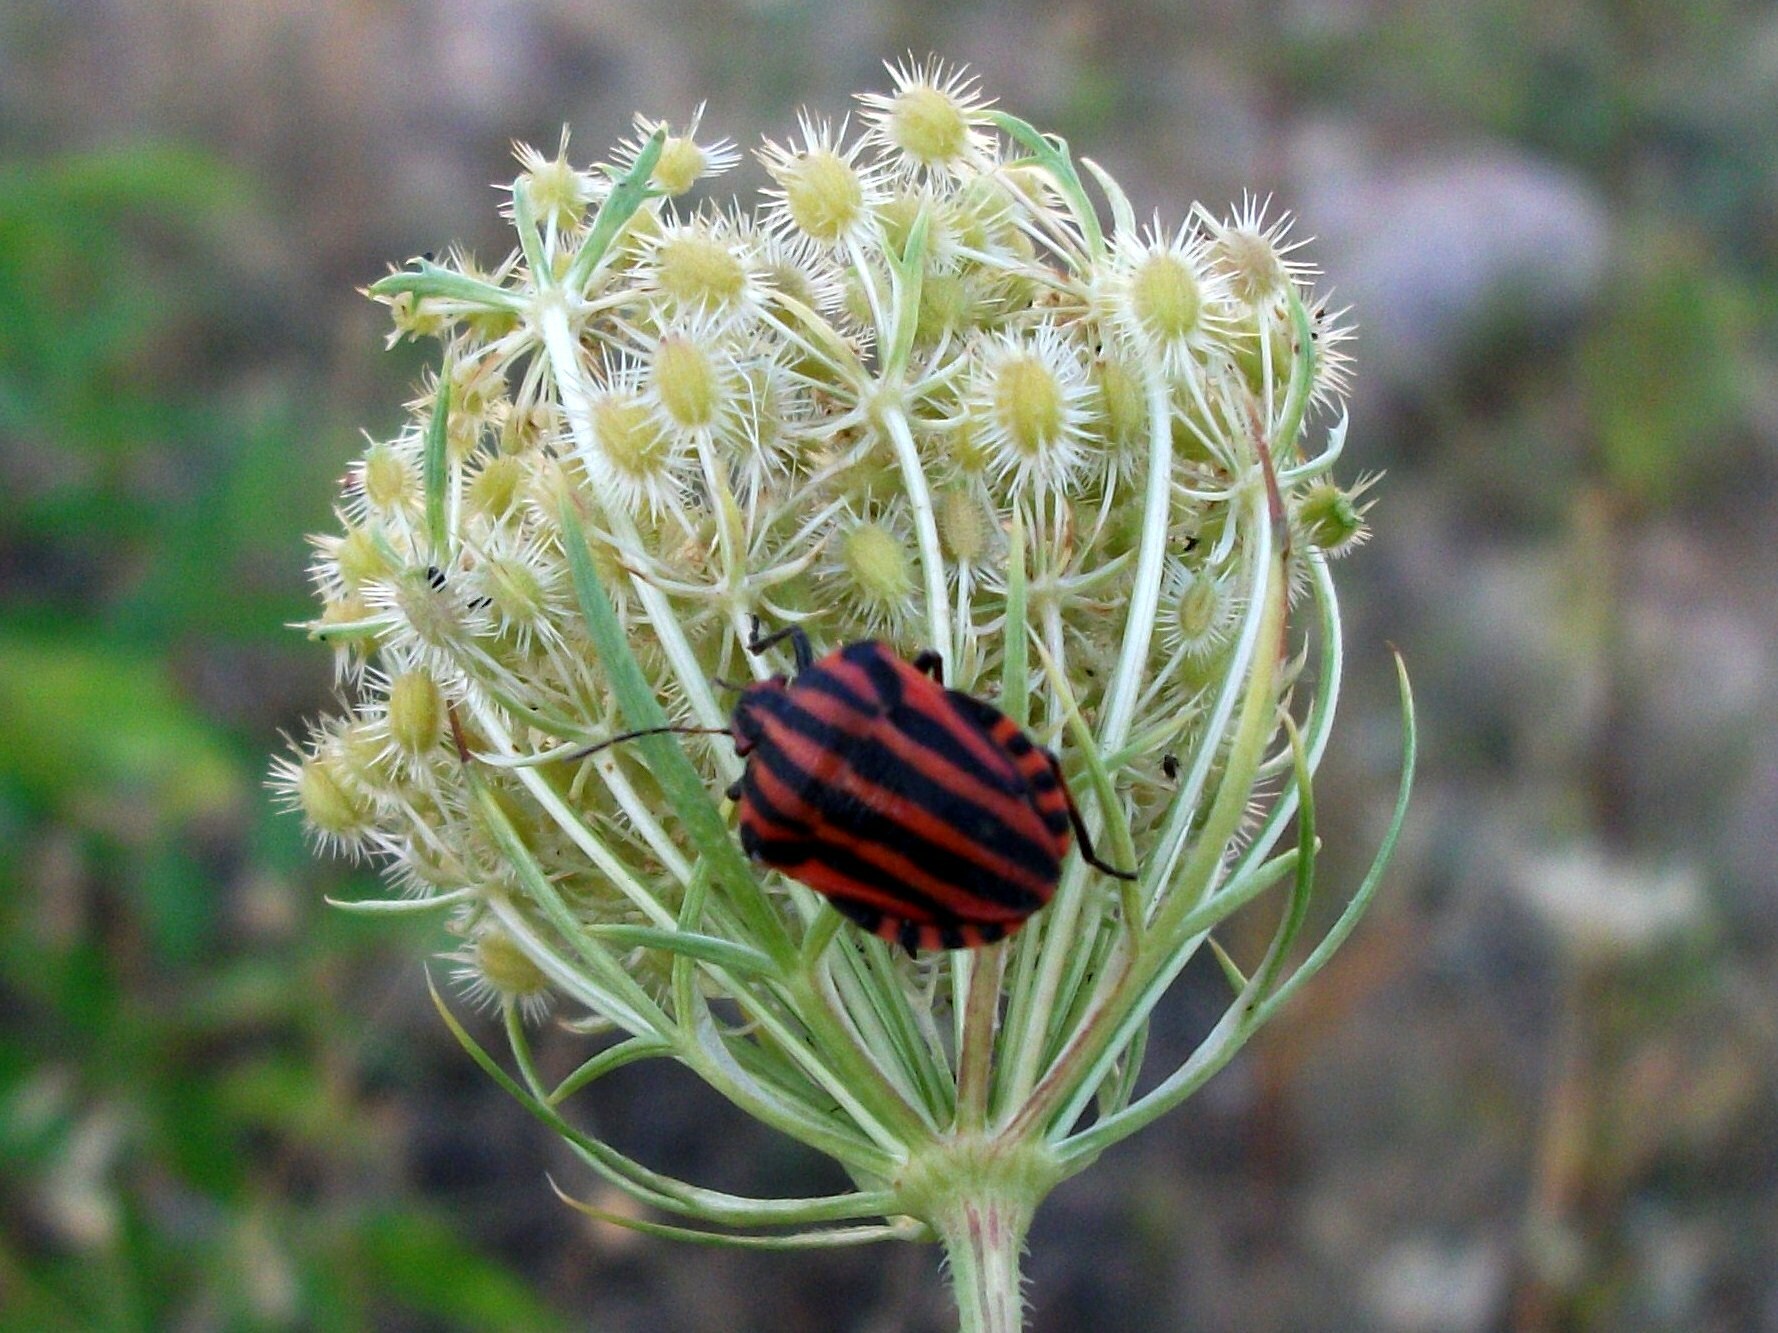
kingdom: Animalia
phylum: Arthropoda
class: Insecta
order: Hemiptera
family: Pentatomidae
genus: Graphosoma
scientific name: Graphosoma italicum
